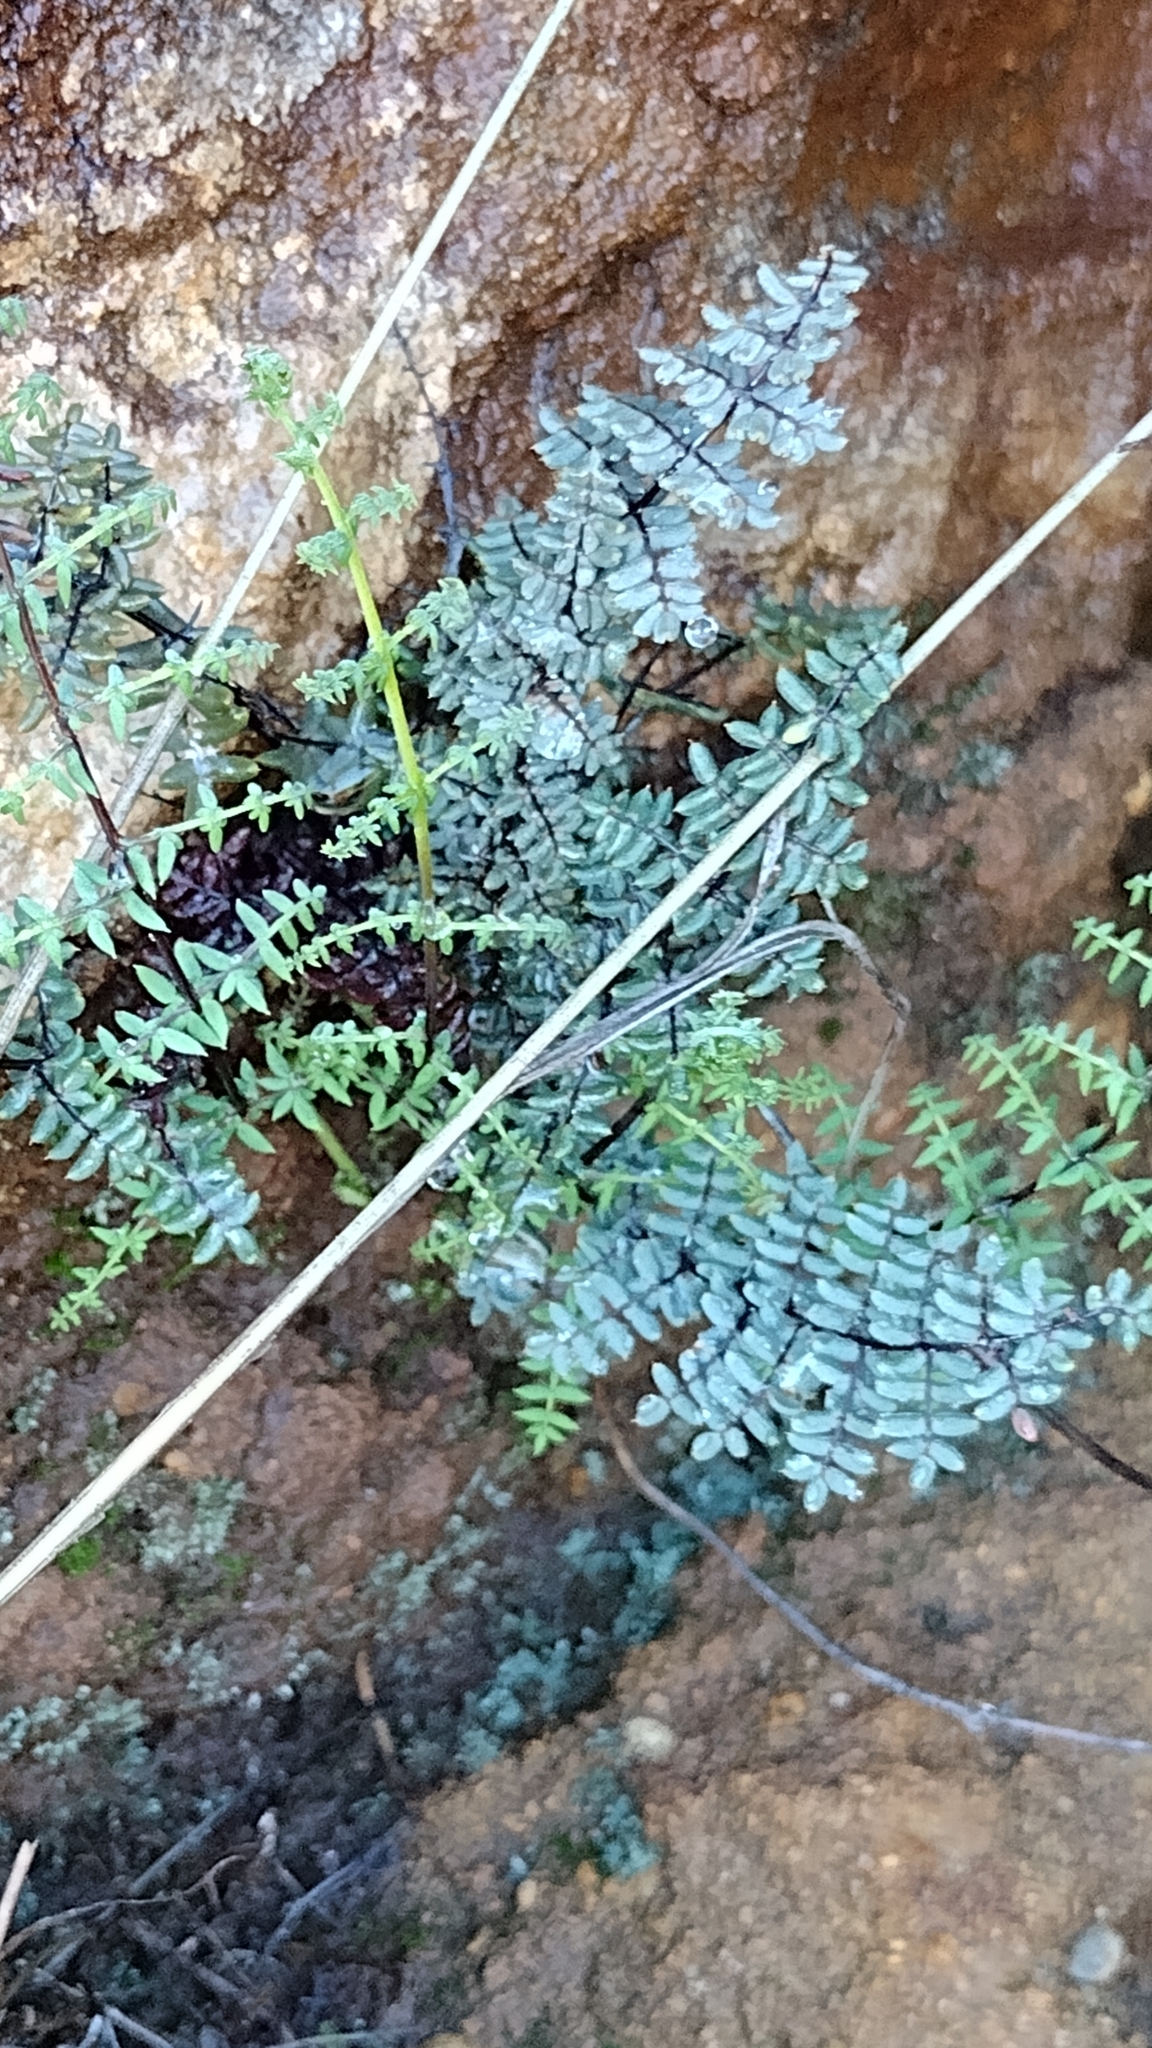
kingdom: Plantae
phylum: Tracheophyta
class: Polypodiopsida
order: Polypodiales
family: Pteridaceae
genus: Pellaea
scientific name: Pellaea mucronata
